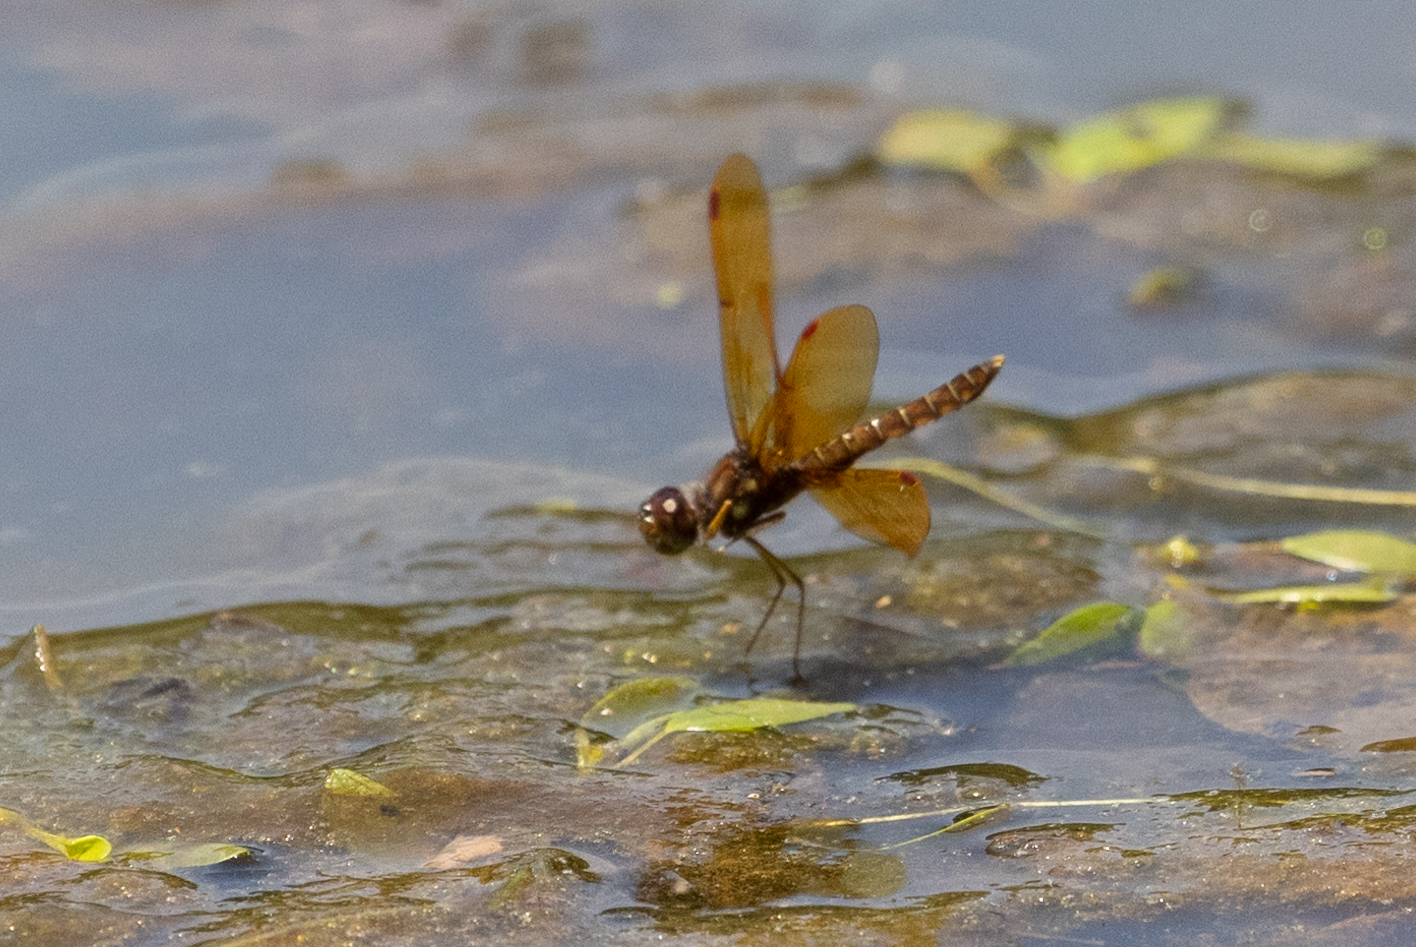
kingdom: Animalia
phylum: Arthropoda
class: Insecta
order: Odonata
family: Libellulidae
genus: Perithemis
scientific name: Perithemis tenera
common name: Eastern amberwing
